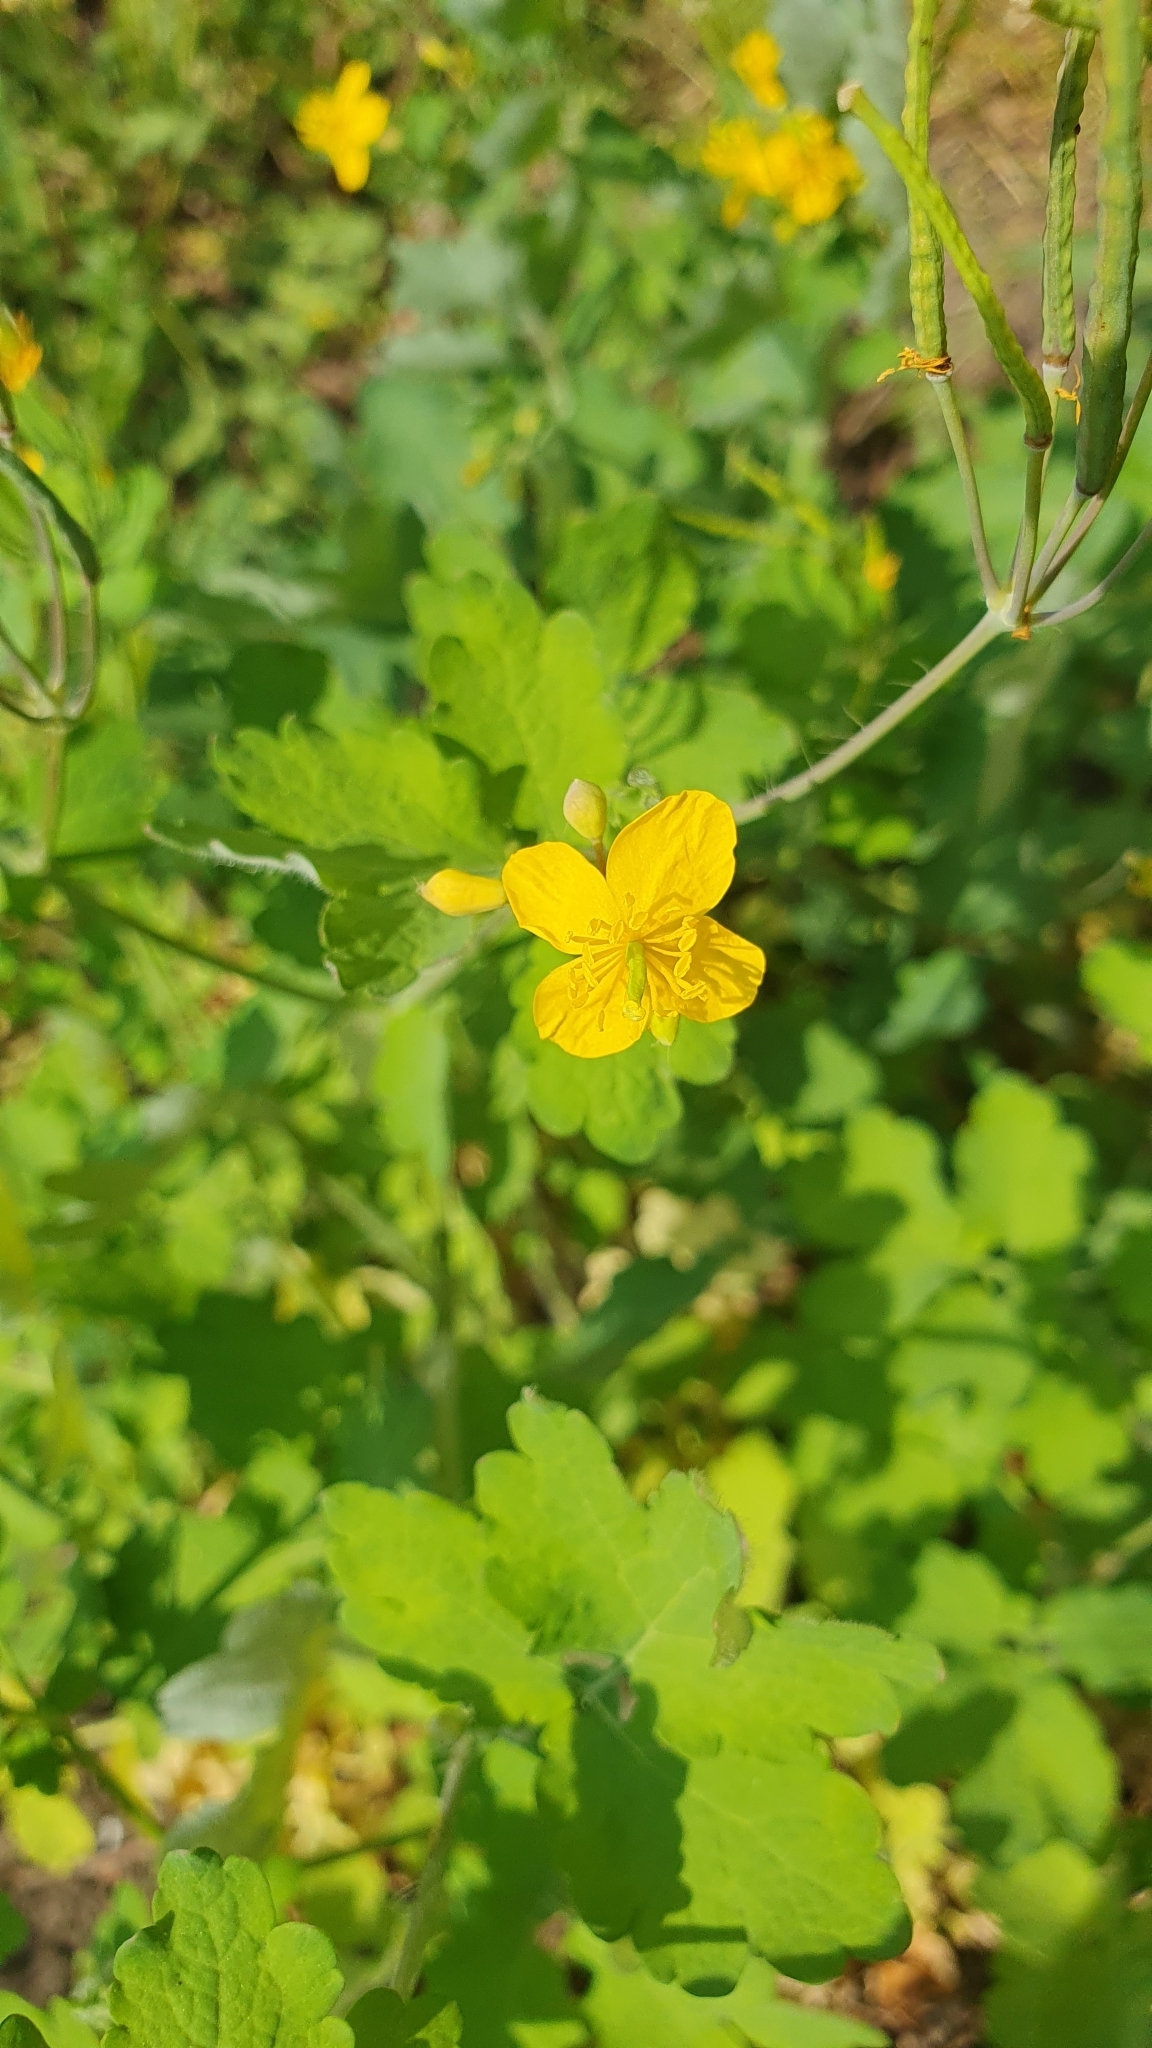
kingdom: Plantae
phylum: Tracheophyta
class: Magnoliopsida
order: Ranunculales
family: Papaveraceae
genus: Chelidonium
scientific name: Chelidonium majus
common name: Greater celandine
